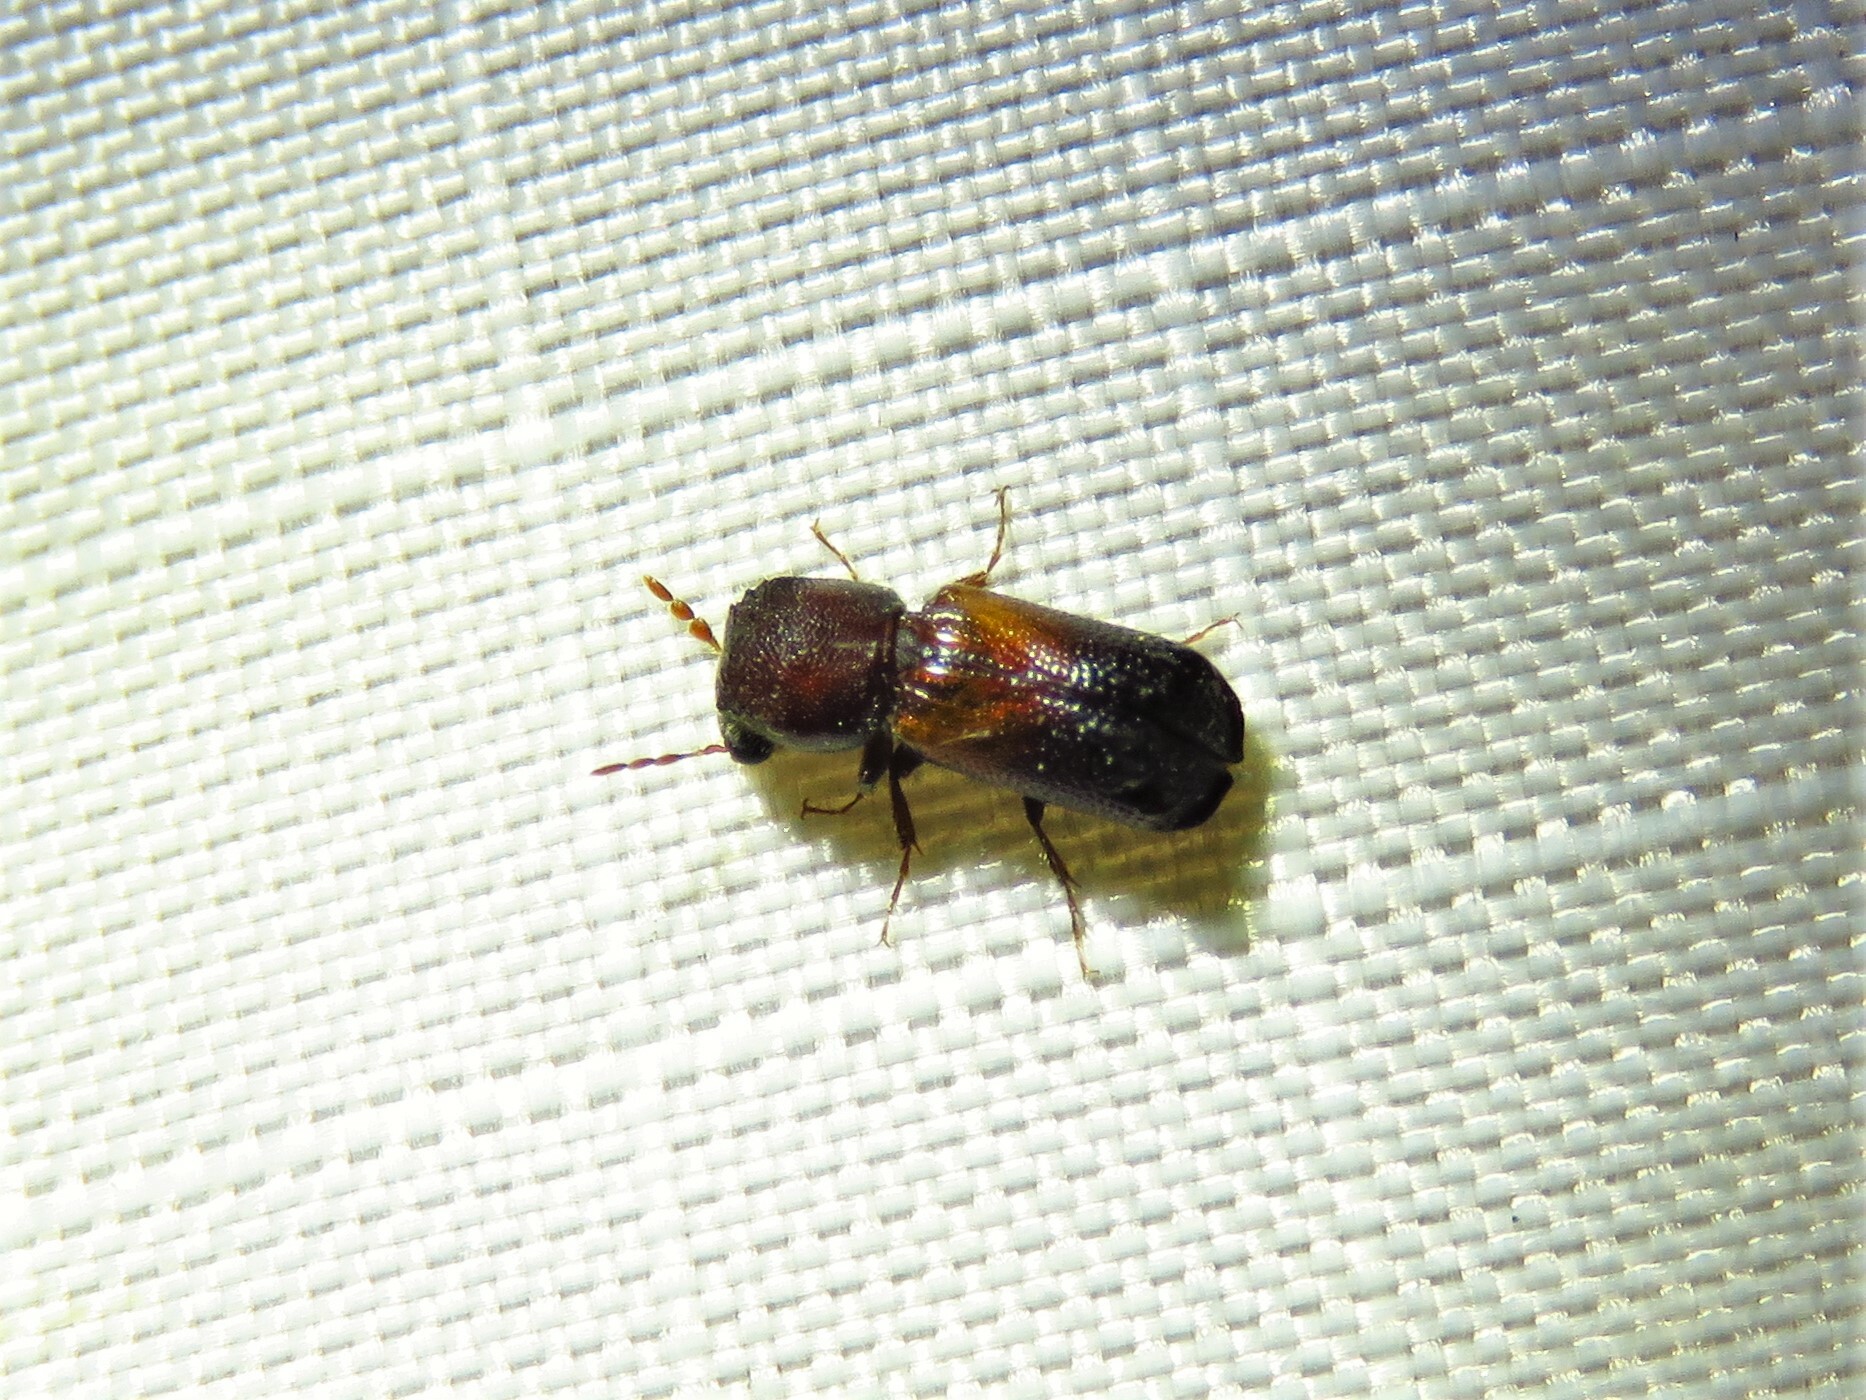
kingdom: Animalia
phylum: Arthropoda
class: Insecta
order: Coleoptera
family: Bostrichidae
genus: Xylobiops
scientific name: Xylobiops basilaris
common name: Red-shouldered bostrichid
